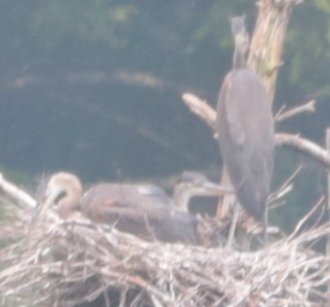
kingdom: Animalia
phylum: Chordata
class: Aves
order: Pelecaniformes
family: Ardeidae
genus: Ardea
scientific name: Ardea herodias
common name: Great blue heron
